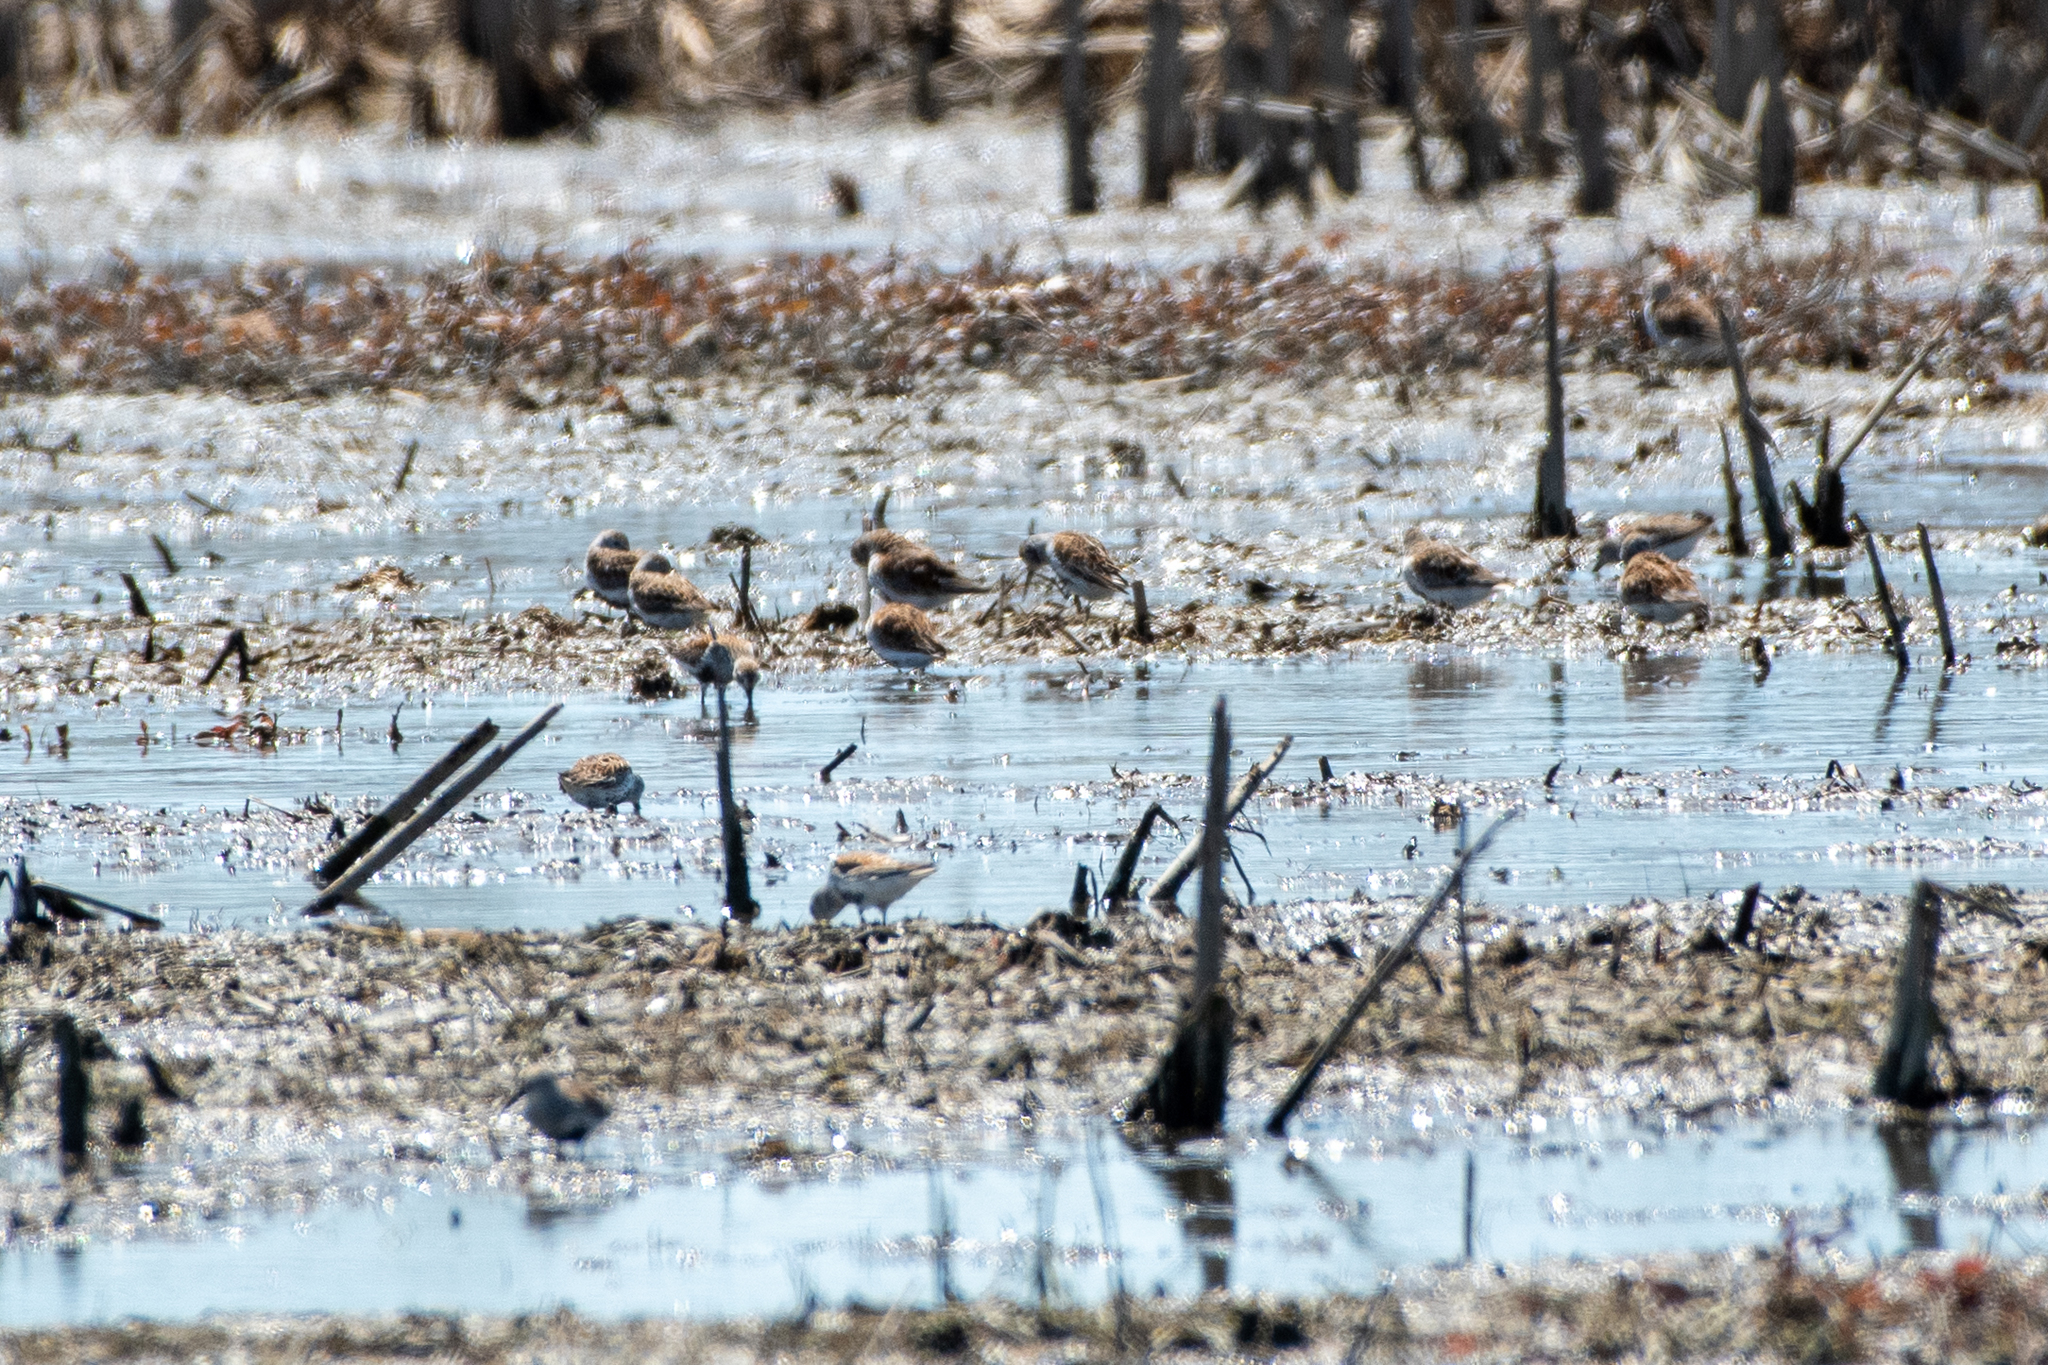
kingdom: Animalia
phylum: Chordata
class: Aves
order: Charadriiformes
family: Scolopacidae
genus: Calidris
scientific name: Calidris alpina
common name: Dunlin
